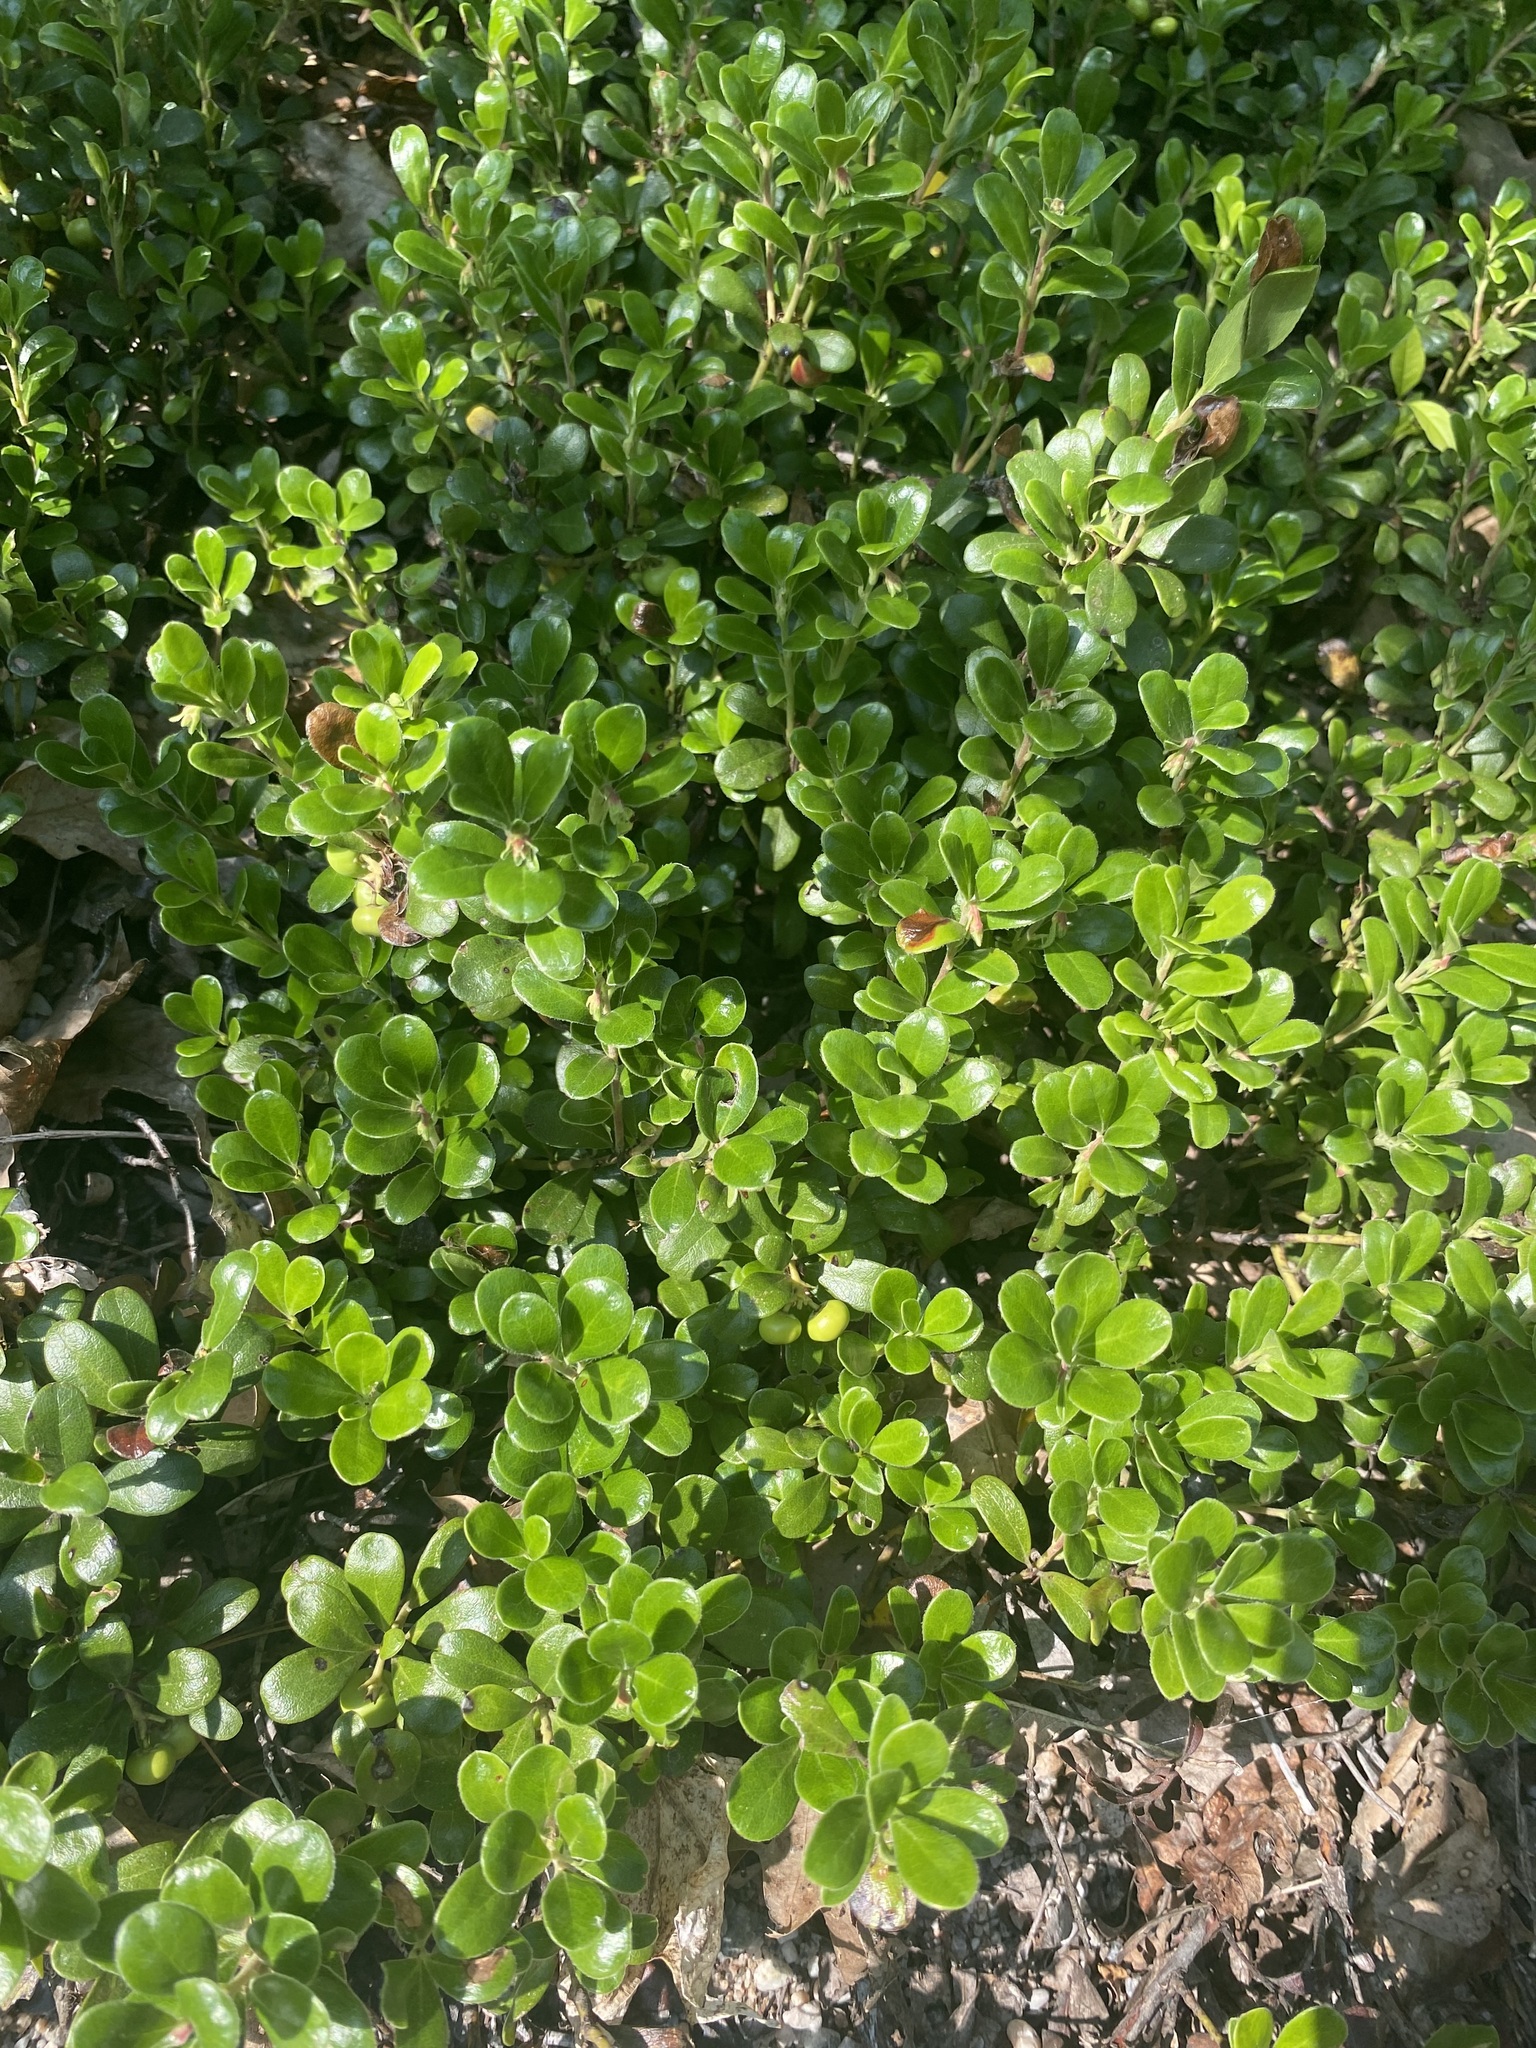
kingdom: Plantae
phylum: Tracheophyta
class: Magnoliopsida
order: Ericales
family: Ericaceae
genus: Arctostaphylos
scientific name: Arctostaphylos uva-ursi
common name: Bearberry
